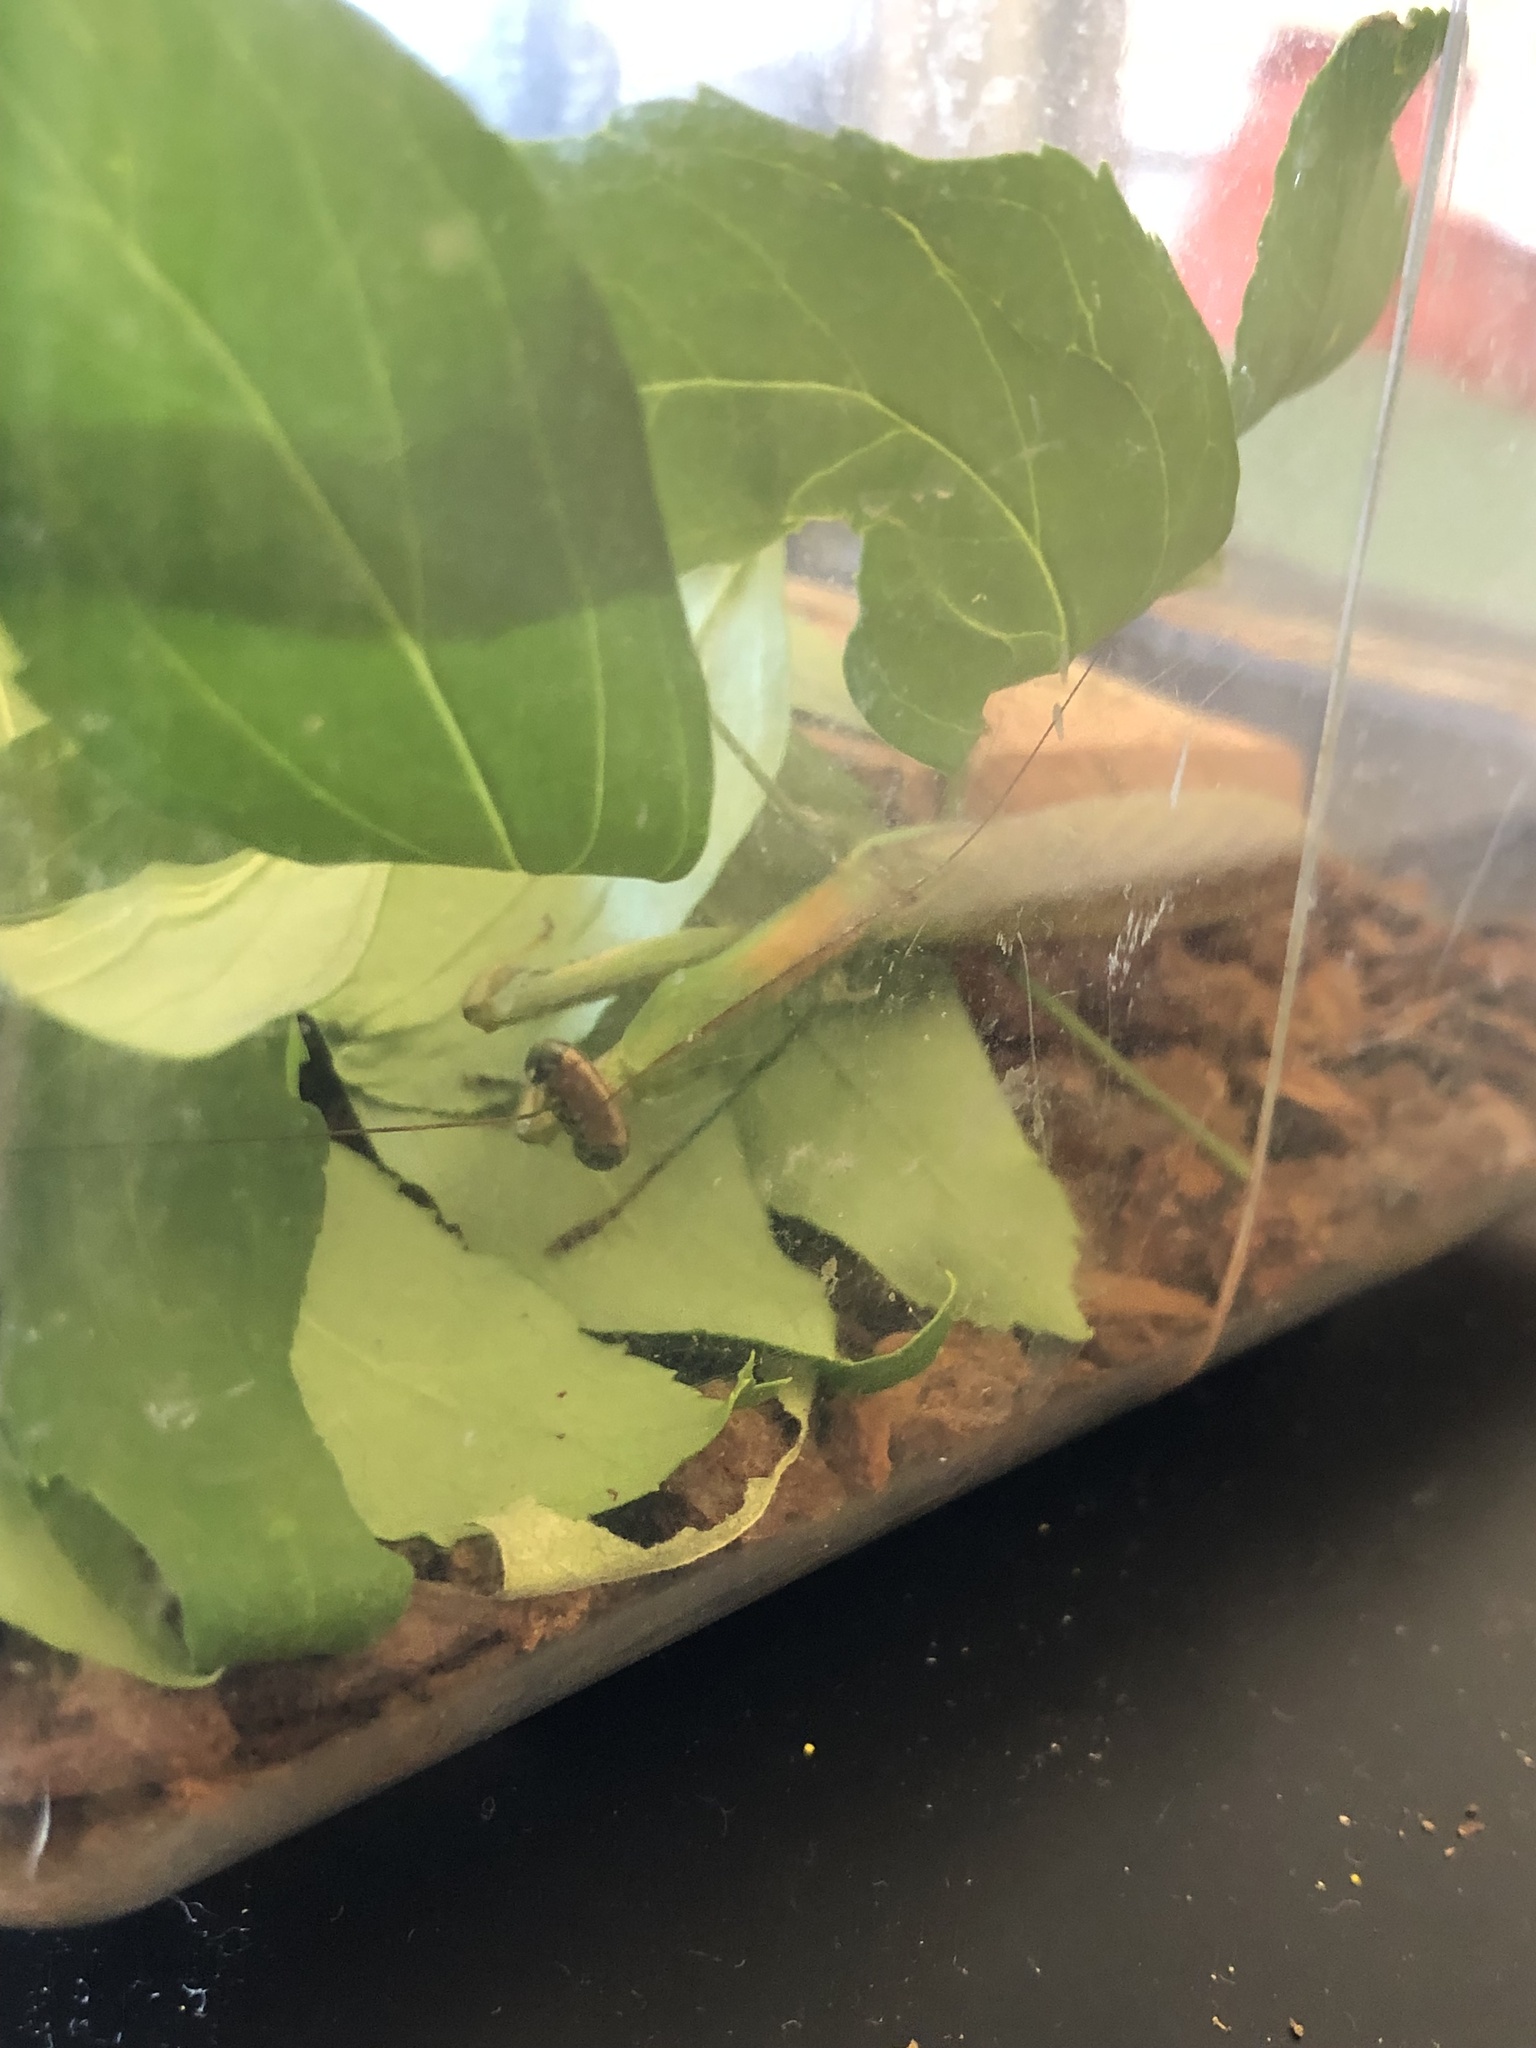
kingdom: Animalia
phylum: Arthropoda
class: Insecta
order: Mantodea
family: Mantidae
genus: Tenodera
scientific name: Tenodera sinensis
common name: Chinese mantis
